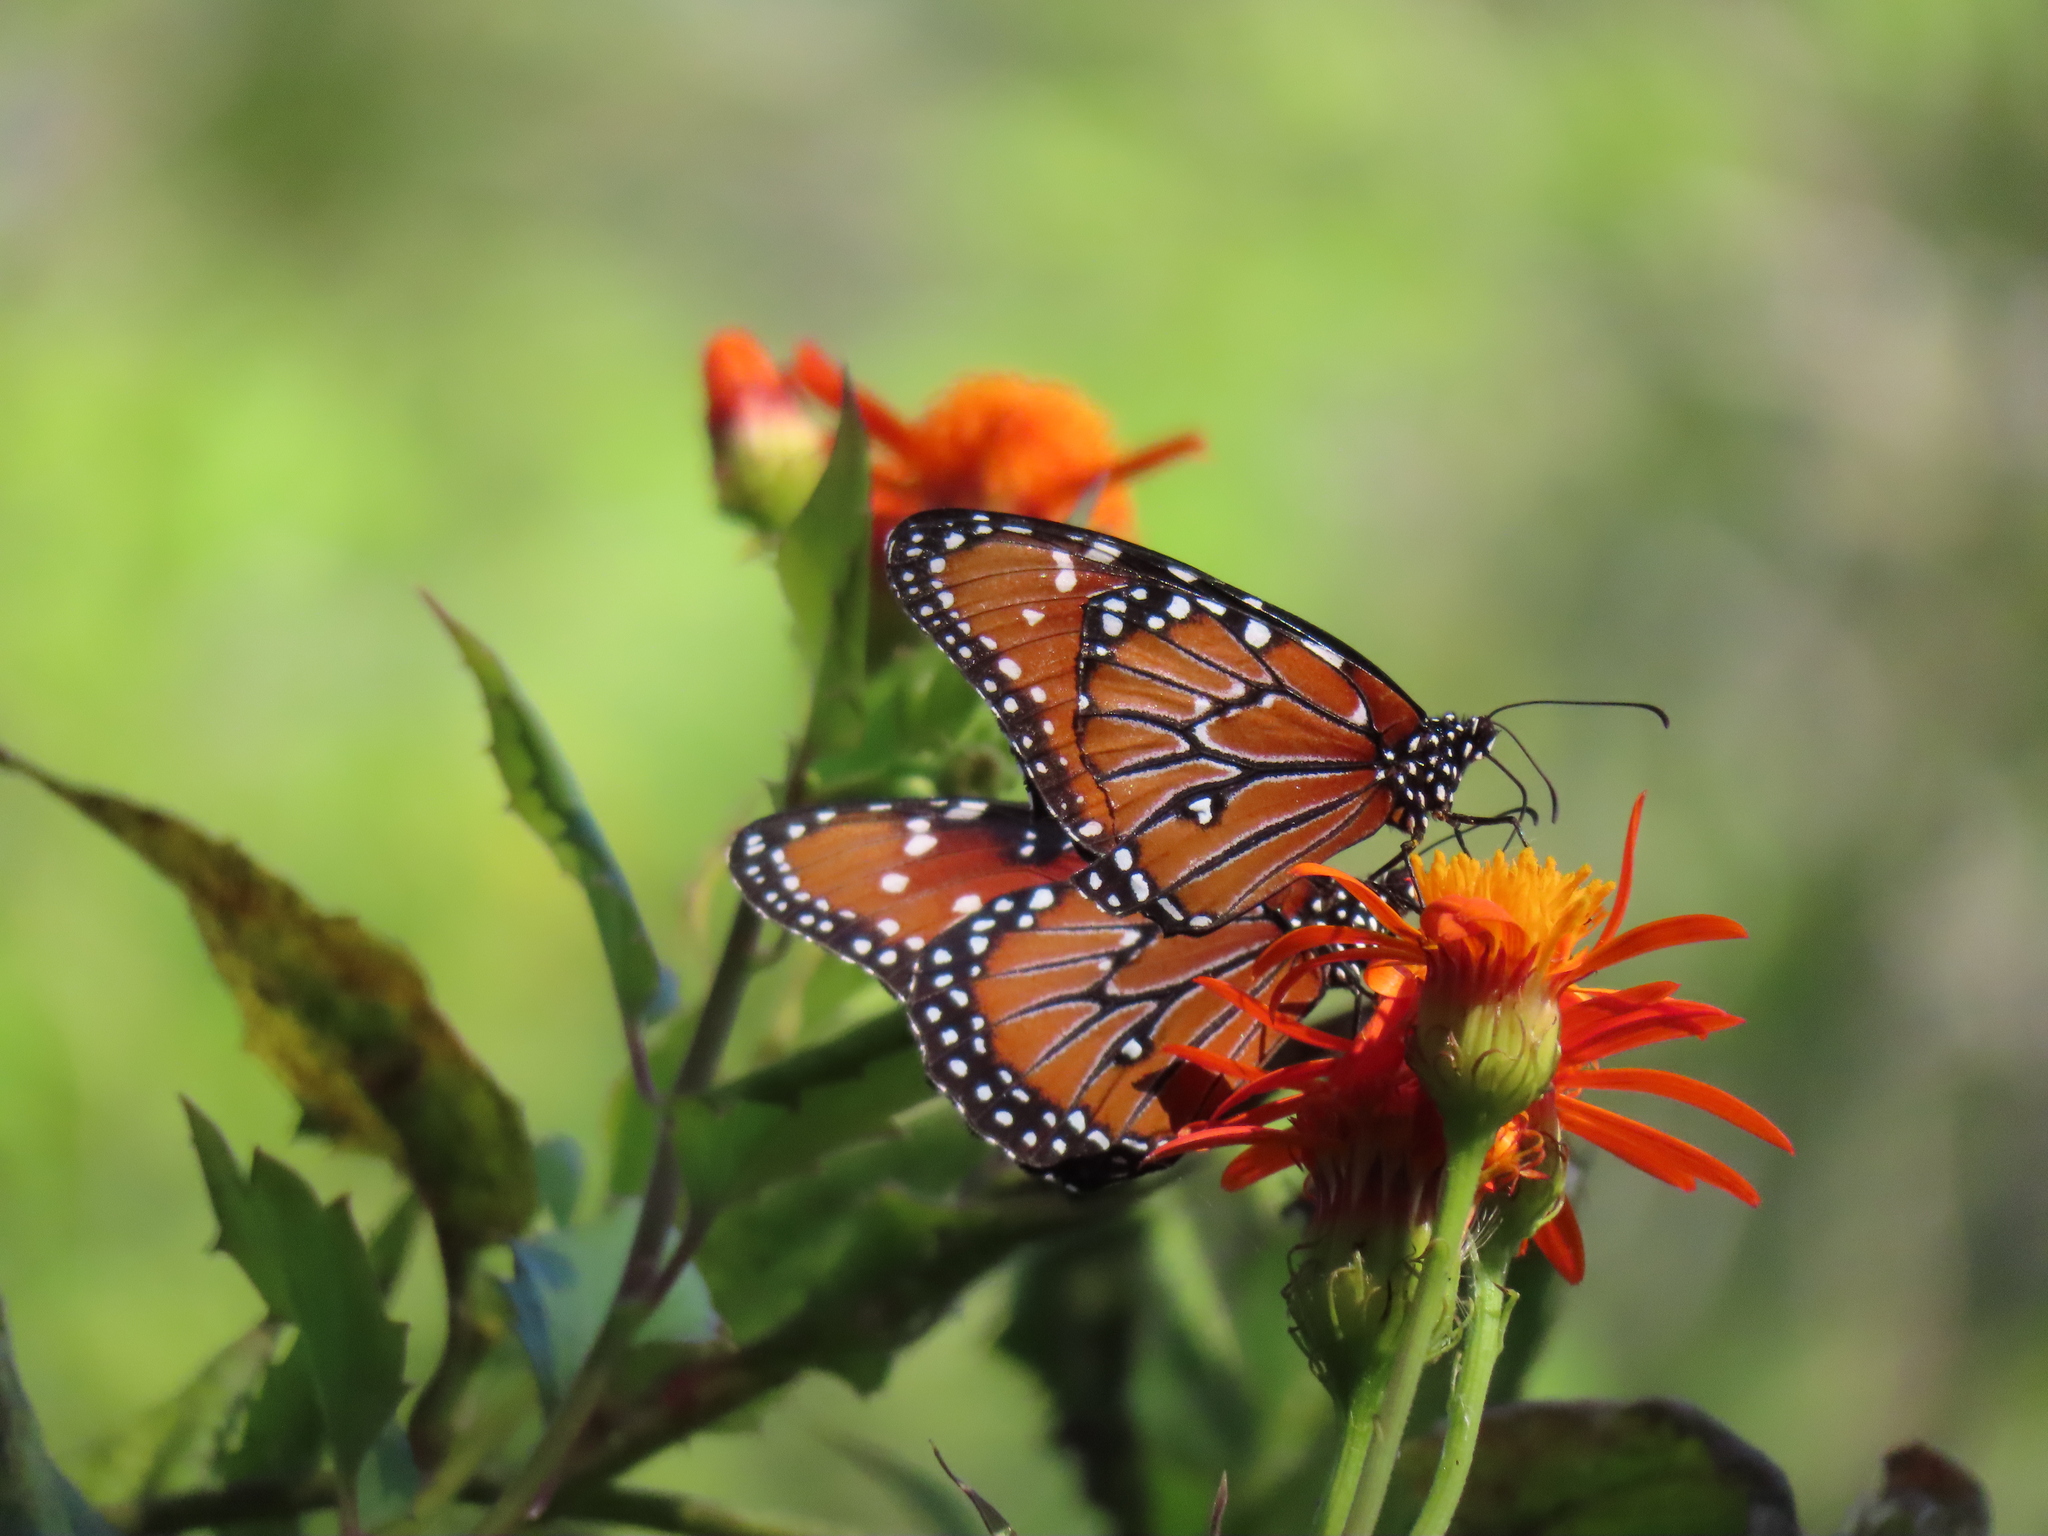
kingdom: Animalia
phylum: Arthropoda
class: Insecta
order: Lepidoptera
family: Nymphalidae
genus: Danaus
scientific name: Danaus gilippus
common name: Queen
